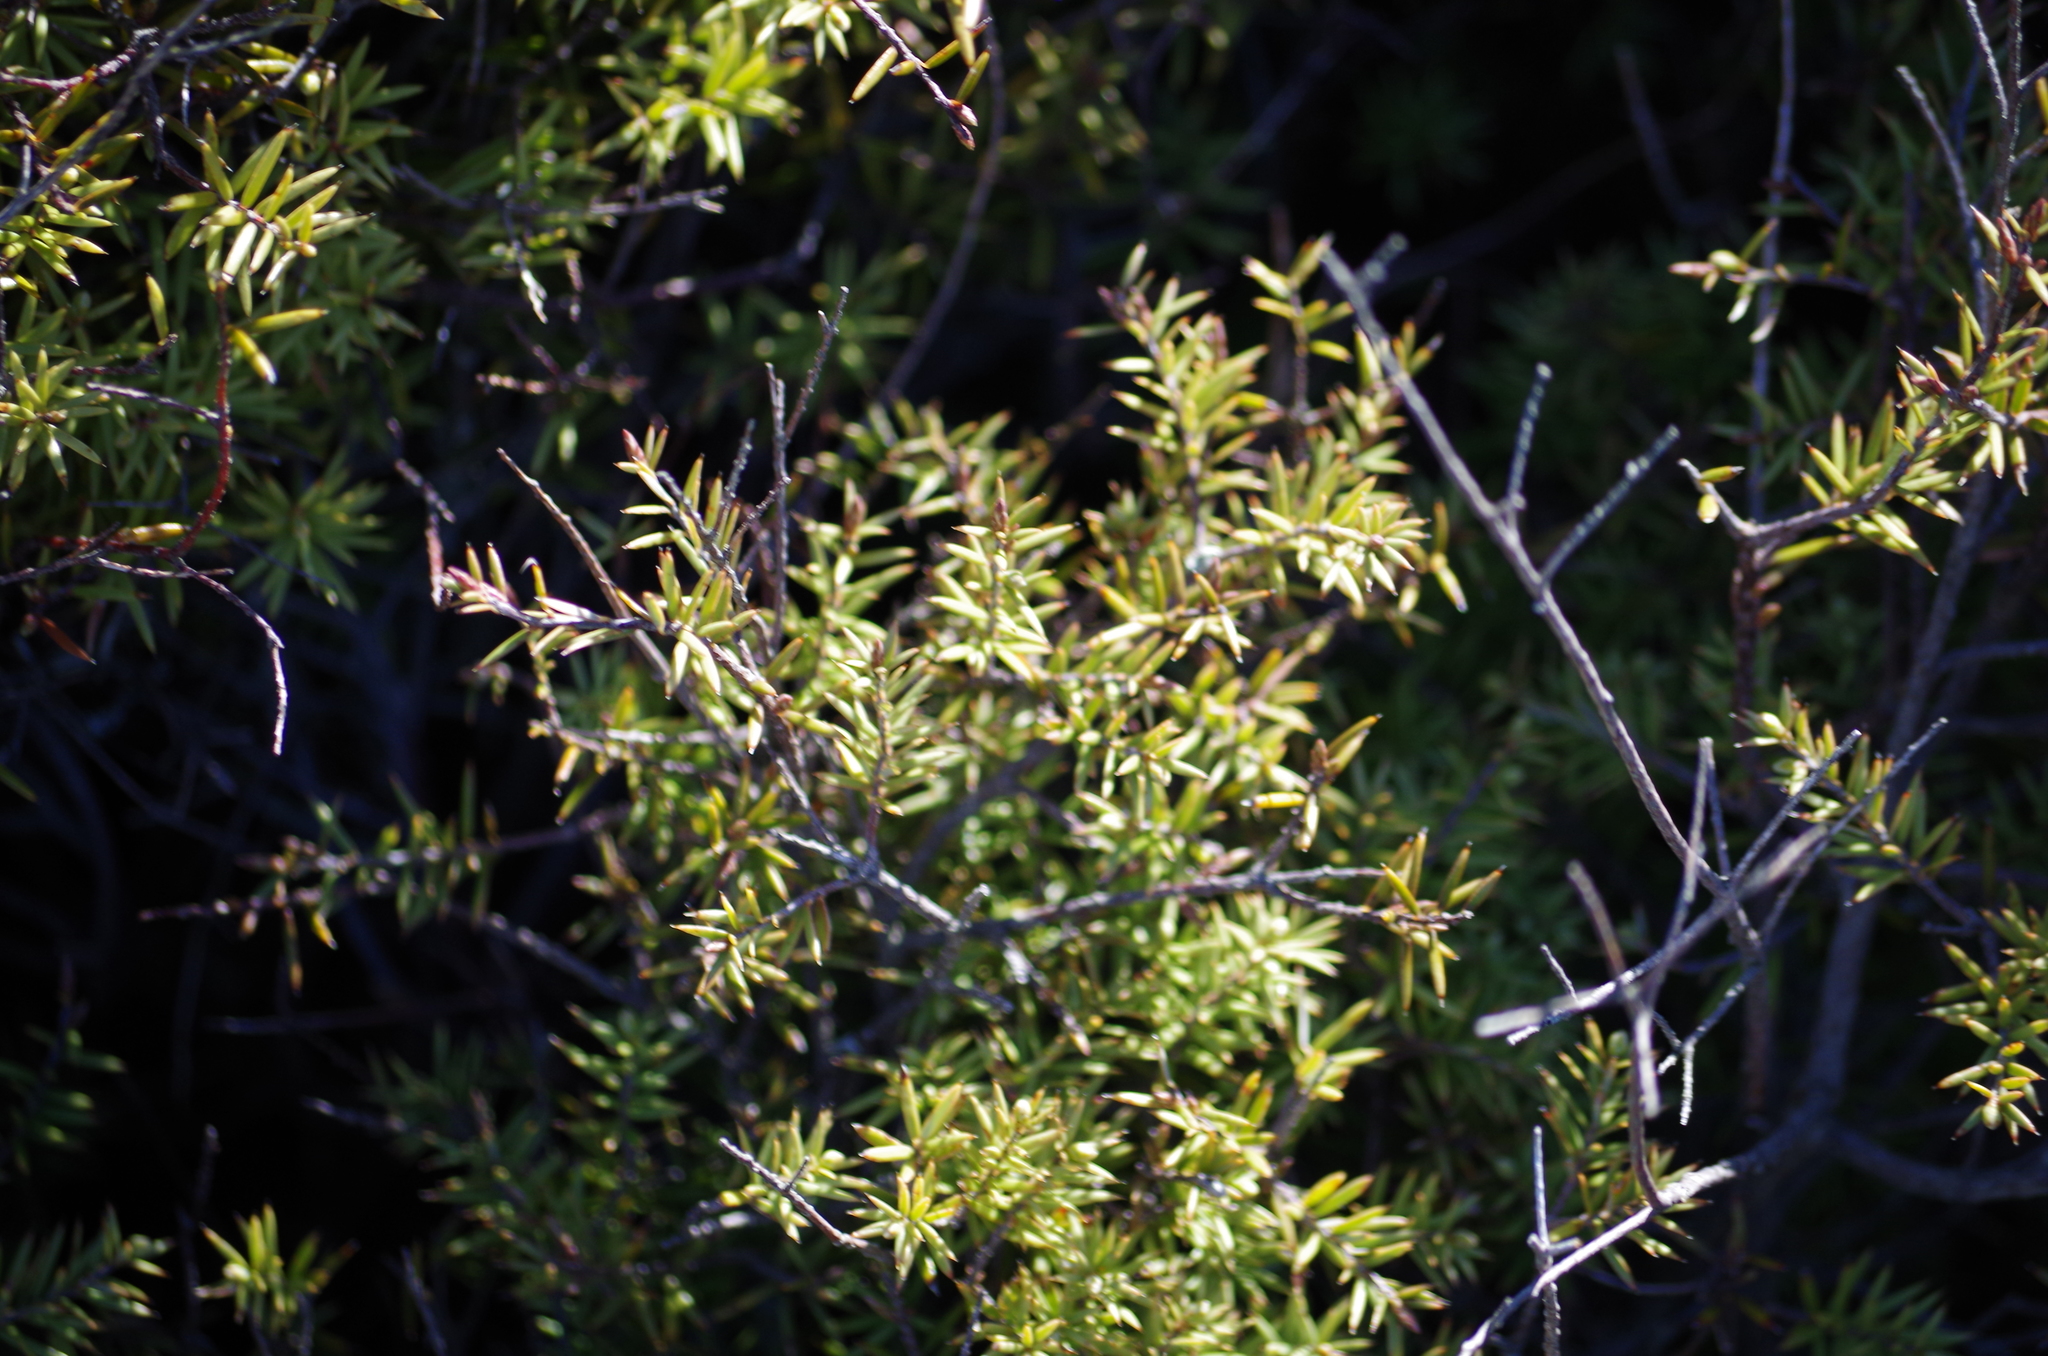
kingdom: Plantae
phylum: Tracheophyta
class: Magnoliopsida
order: Ericales
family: Ericaceae
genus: Leptecophylla
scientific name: Leptecophylla juniperina
